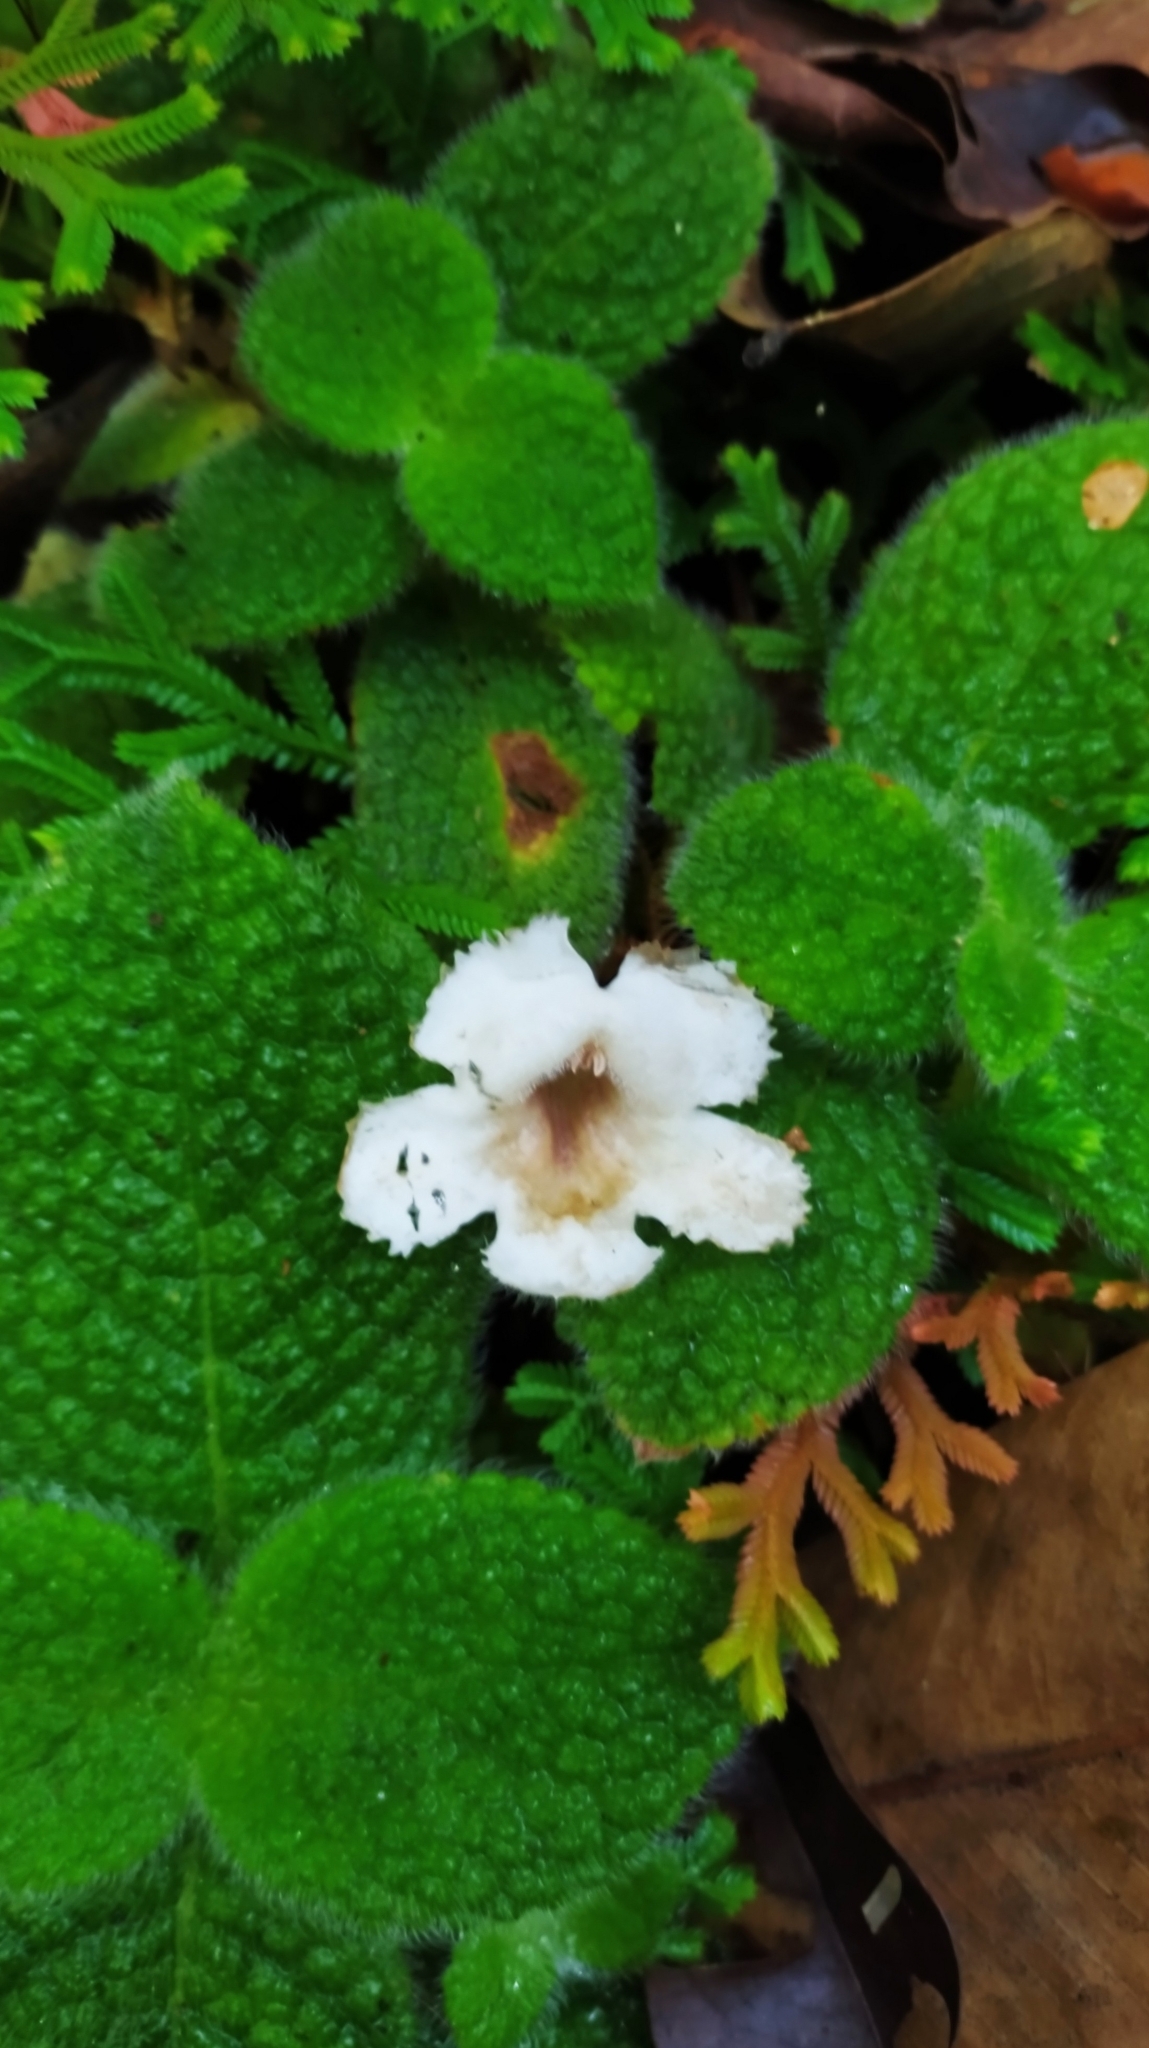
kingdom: Plantae
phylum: Tracheophyta
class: Magnoliopsida
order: Lamiales
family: Gesneriaceae
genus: Episcia
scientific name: Episcia sphalera
